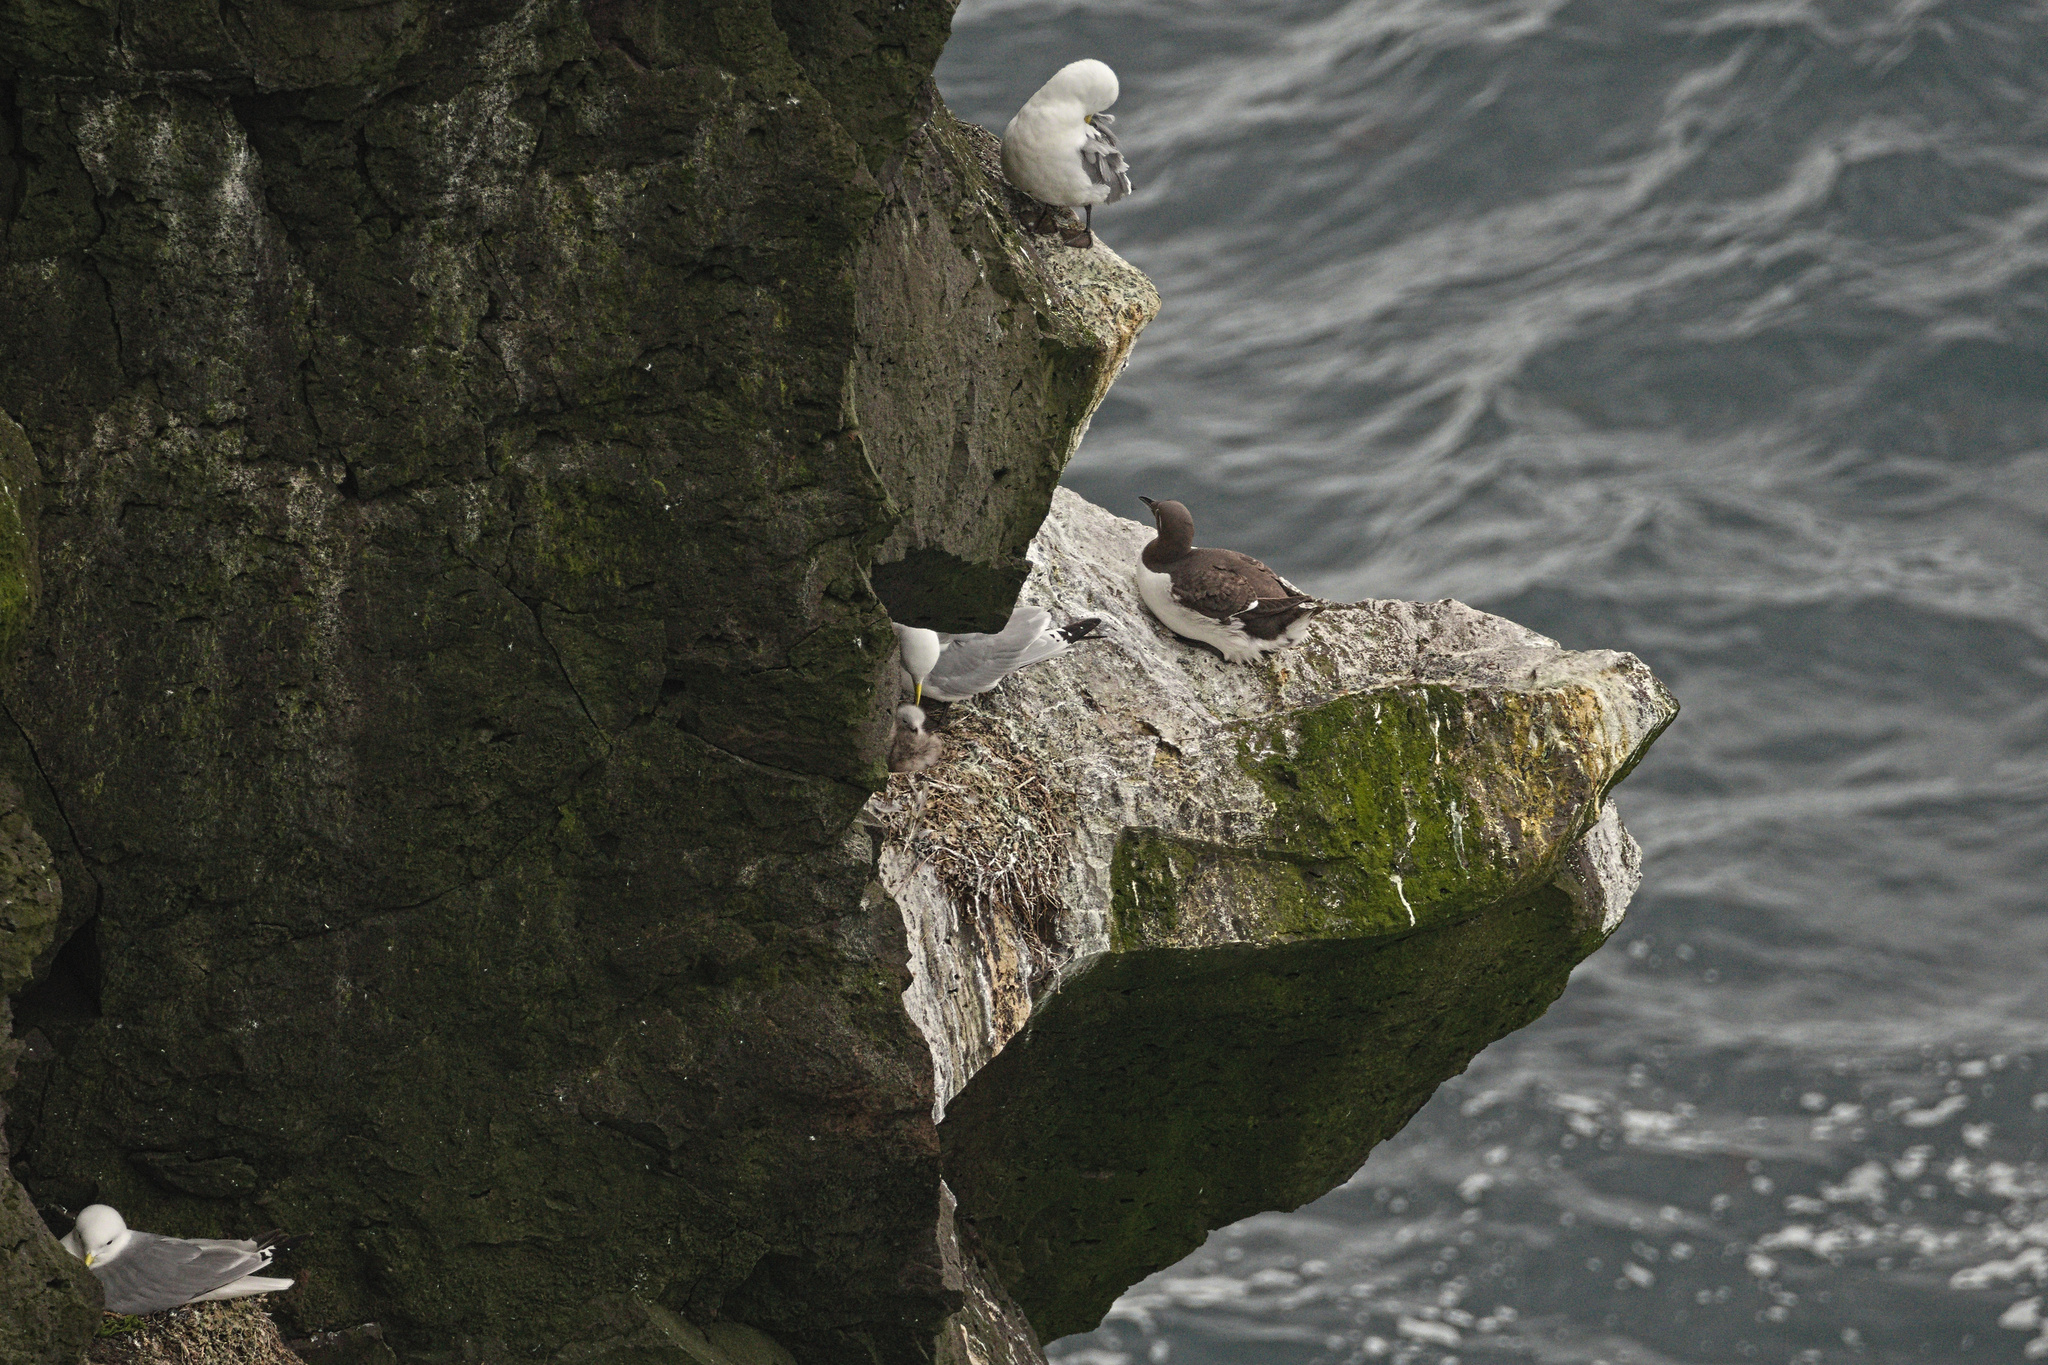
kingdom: Animalia
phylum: Chordata
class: Aves
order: Charadriiformes
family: Laridae
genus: Rissa
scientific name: Rissa tridactyla
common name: Black-legged kittiwake
